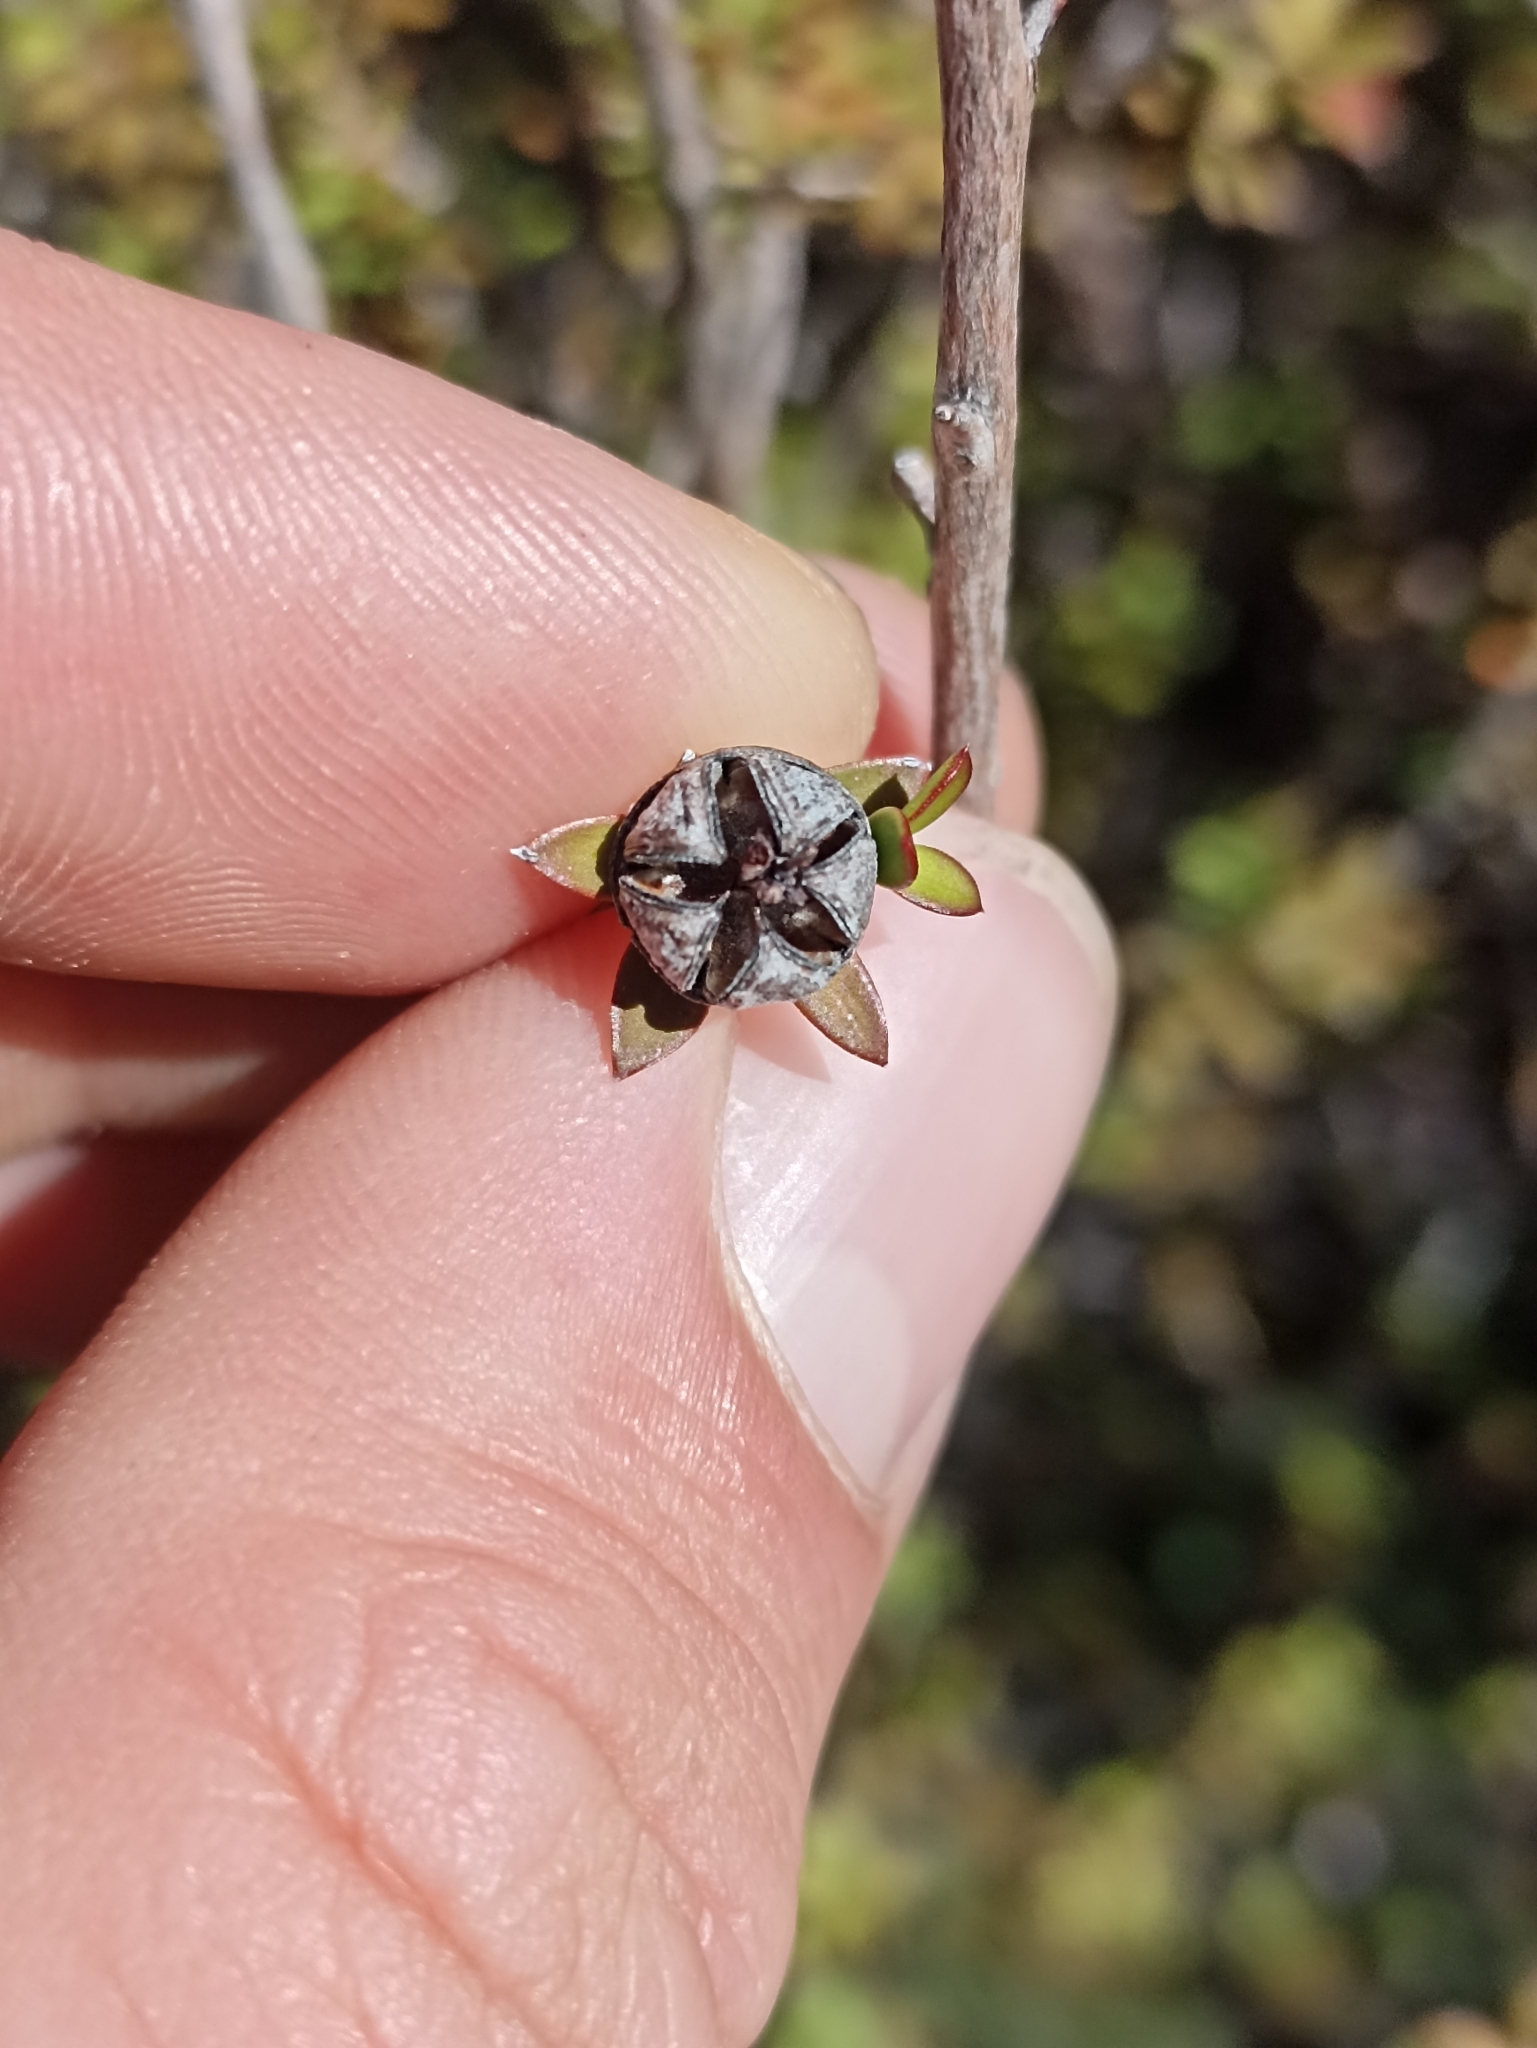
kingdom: Plantae
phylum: Tracheophyta
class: Magnoliopsida
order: Myrtales
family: Myrtaceae
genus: Leptospermum
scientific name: Leptospermum scoparium
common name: Broom tea-tree
